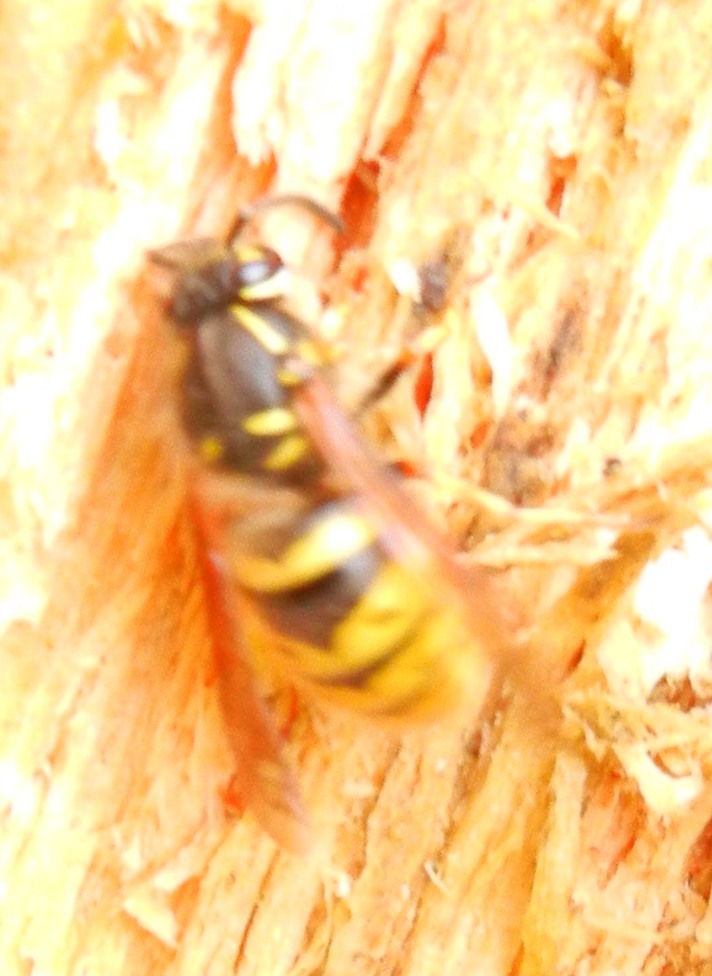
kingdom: Animalia
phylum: Arthropoda
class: Insecta
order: Hymenoptera
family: Vespidae
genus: Vespula
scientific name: Vespula vulgaris
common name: Common wasp
